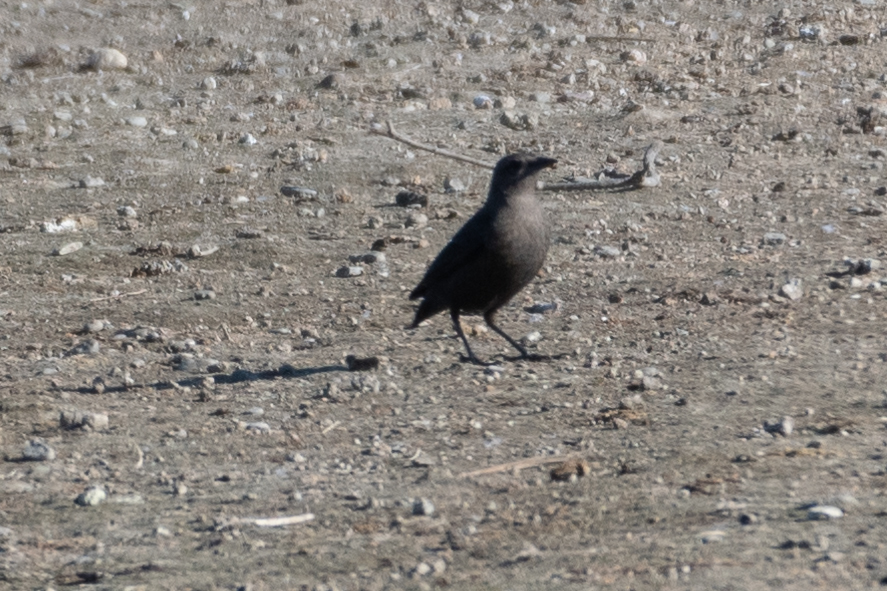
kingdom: Animalia
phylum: Chordata
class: Aves
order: Passeriformes
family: Icteridae
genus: Euphagus
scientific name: Euphagus cyanocephalus
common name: Brewer's blackbird
